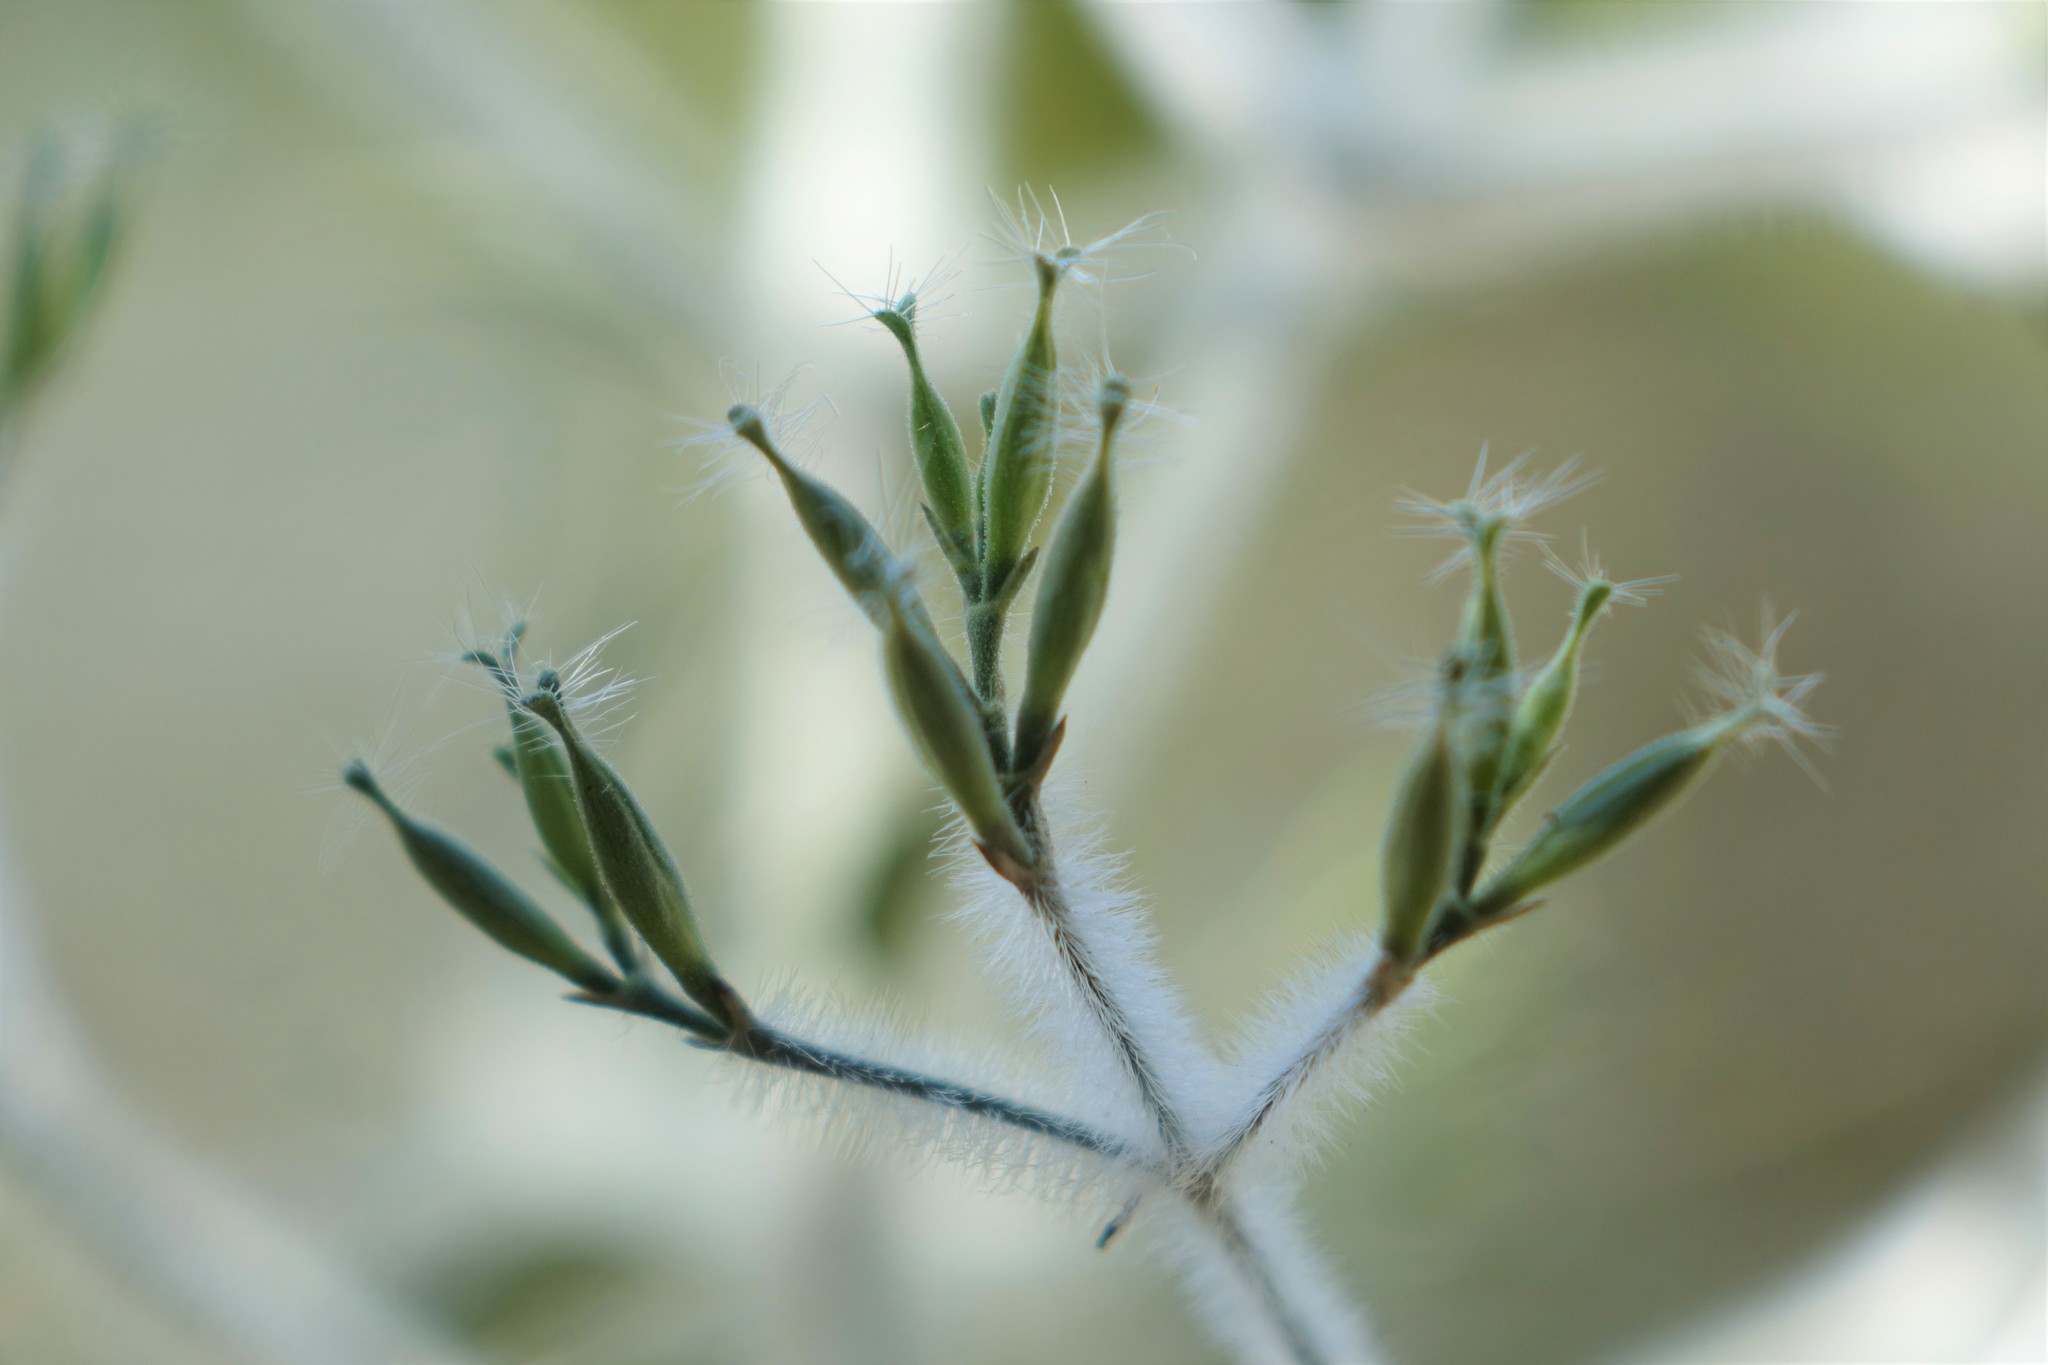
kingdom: Plantae
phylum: Tracheophyta
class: Magnoliopsida
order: Lamiales
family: Acanthaceae
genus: Hypoestes
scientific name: Hypoestes lasioclada
